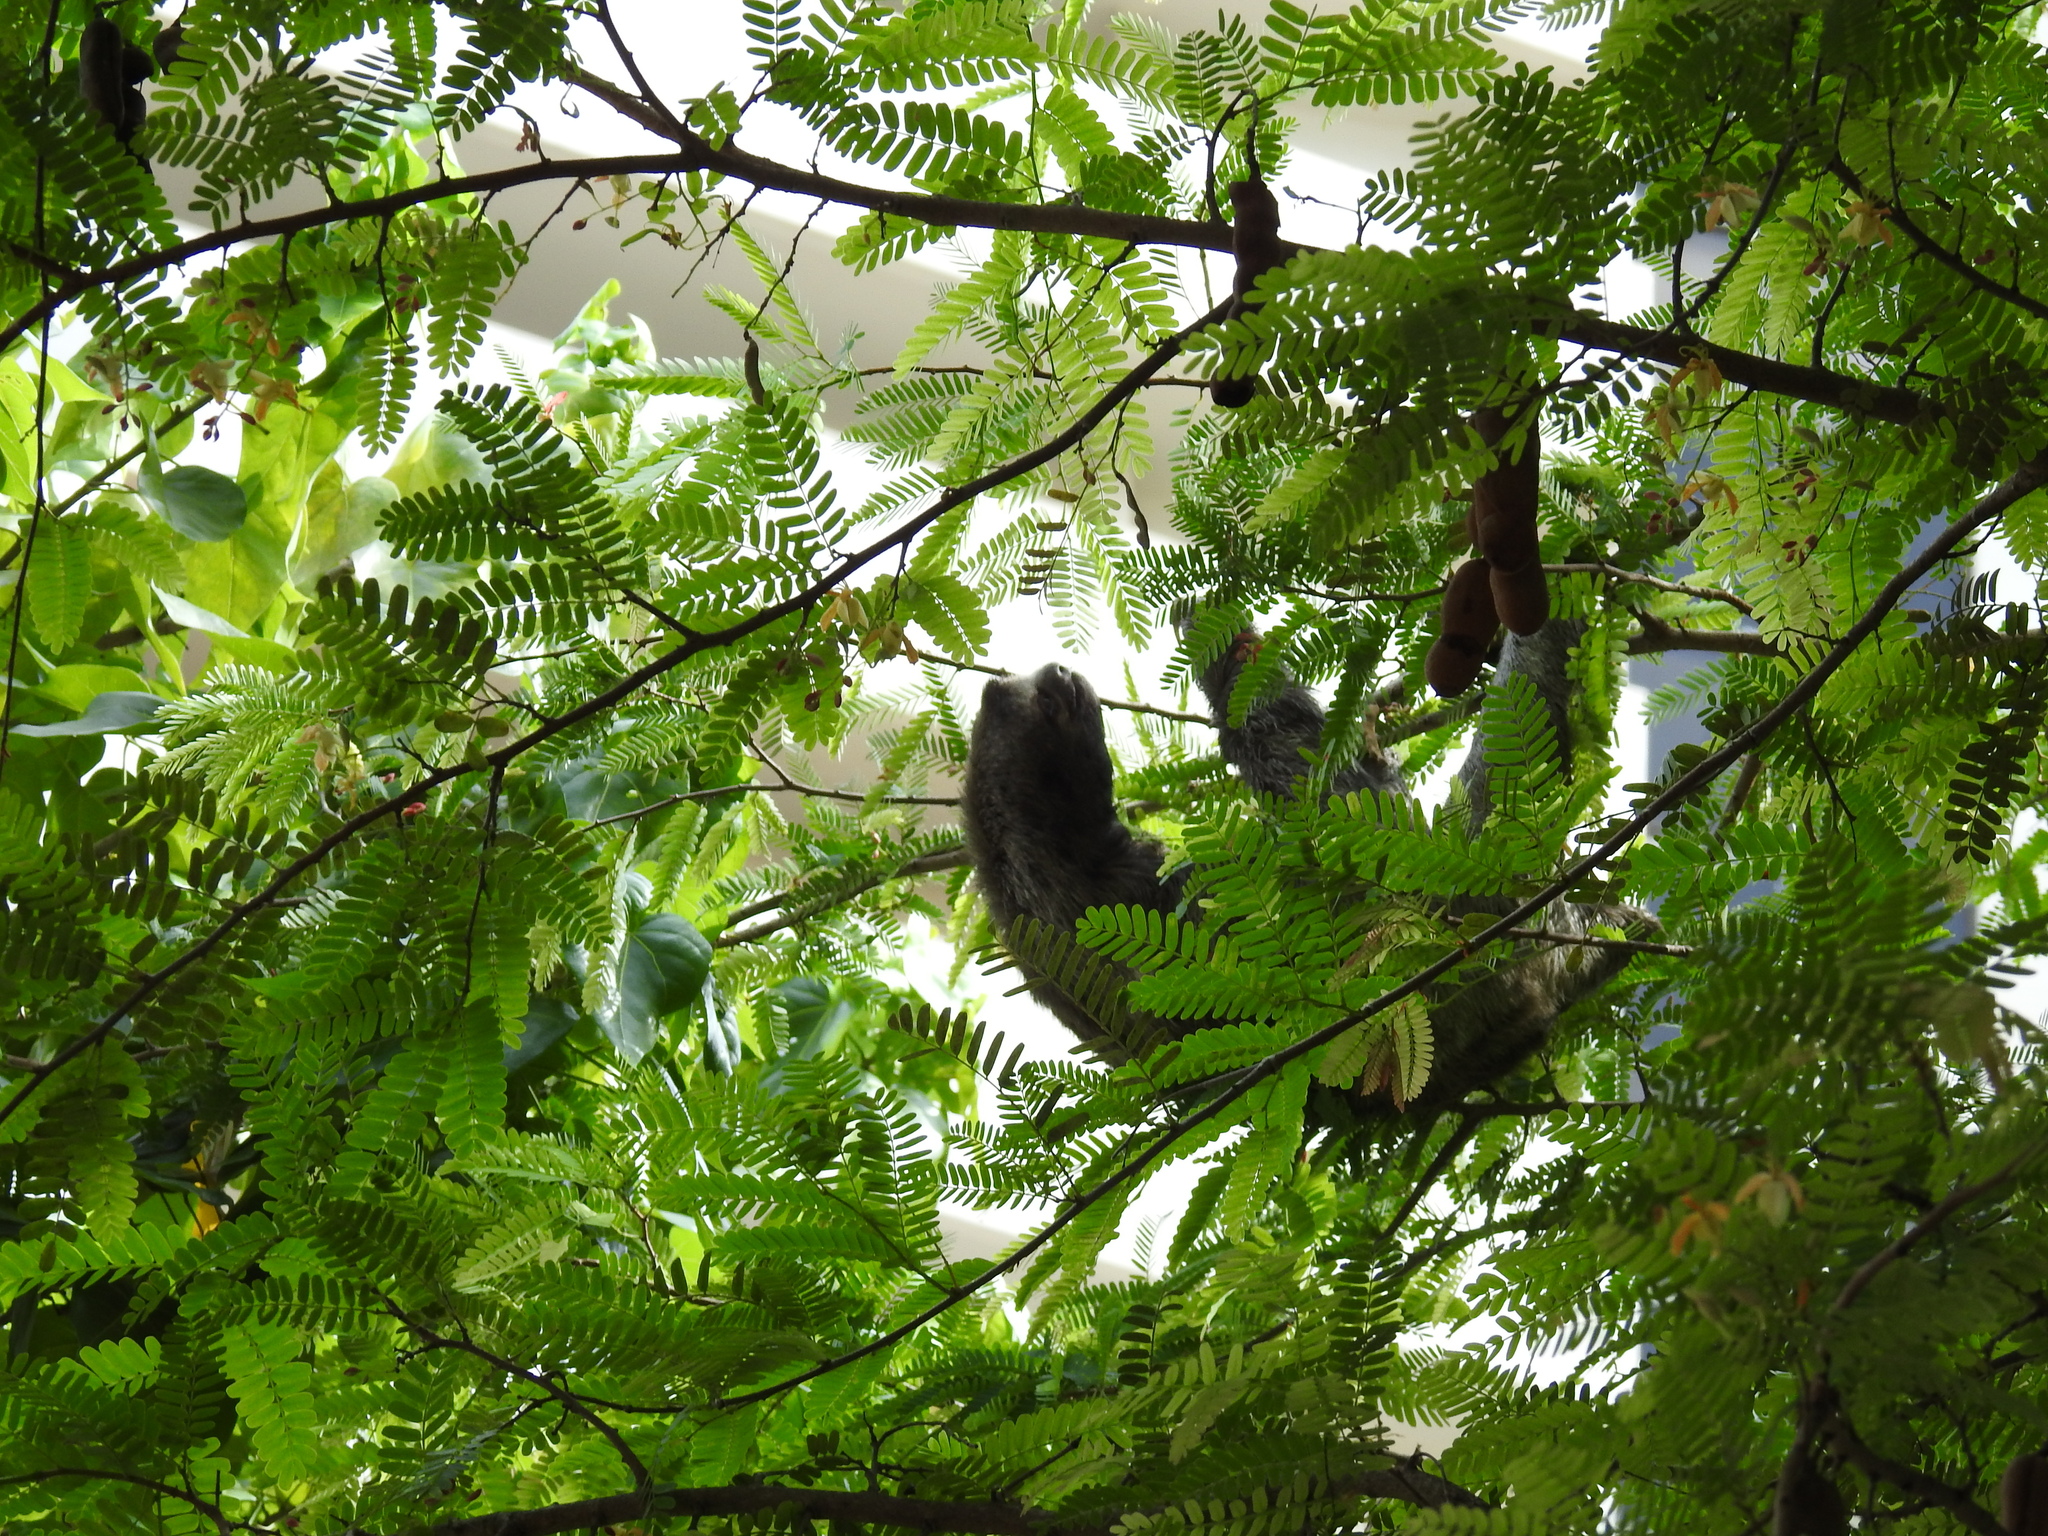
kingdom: Animalia
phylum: Chordata
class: Mammalia
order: Pilosa
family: Bradypodidae
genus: Bradypus
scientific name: Bradypus variegatus
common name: Brown-throated three-toed sloth
